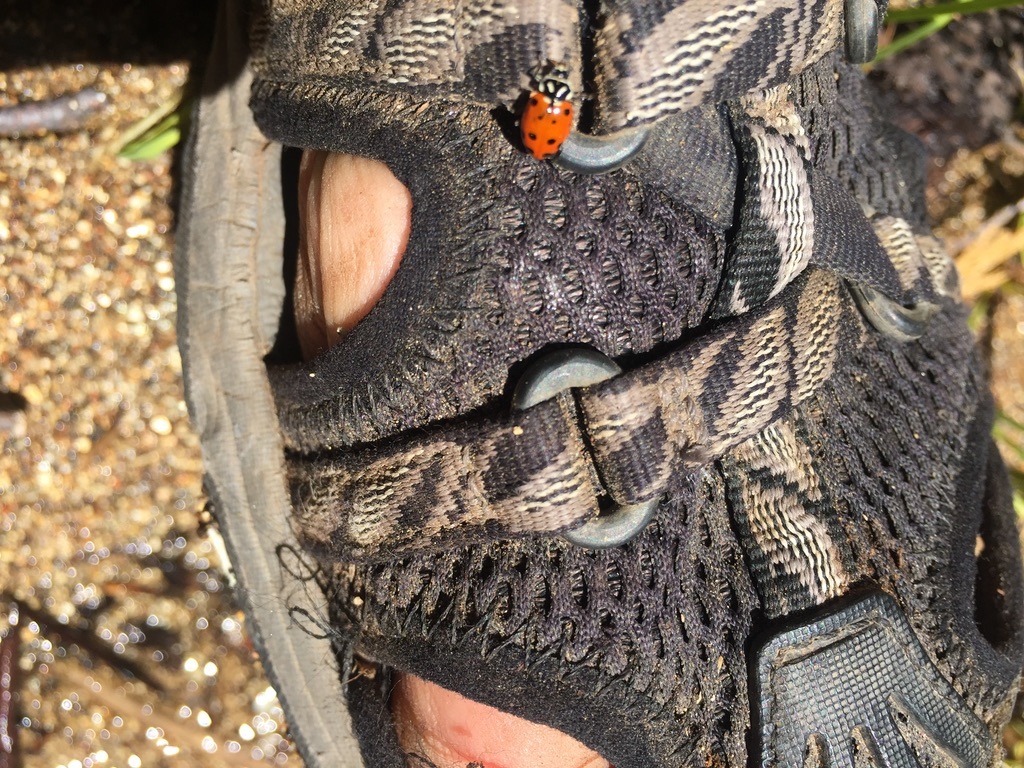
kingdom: Animalia
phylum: Arthropoda
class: Insecta
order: Coleoptera
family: Coccinellidae
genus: Hippodamia
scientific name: Hippodamia convergens
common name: Convergent lady beetle
